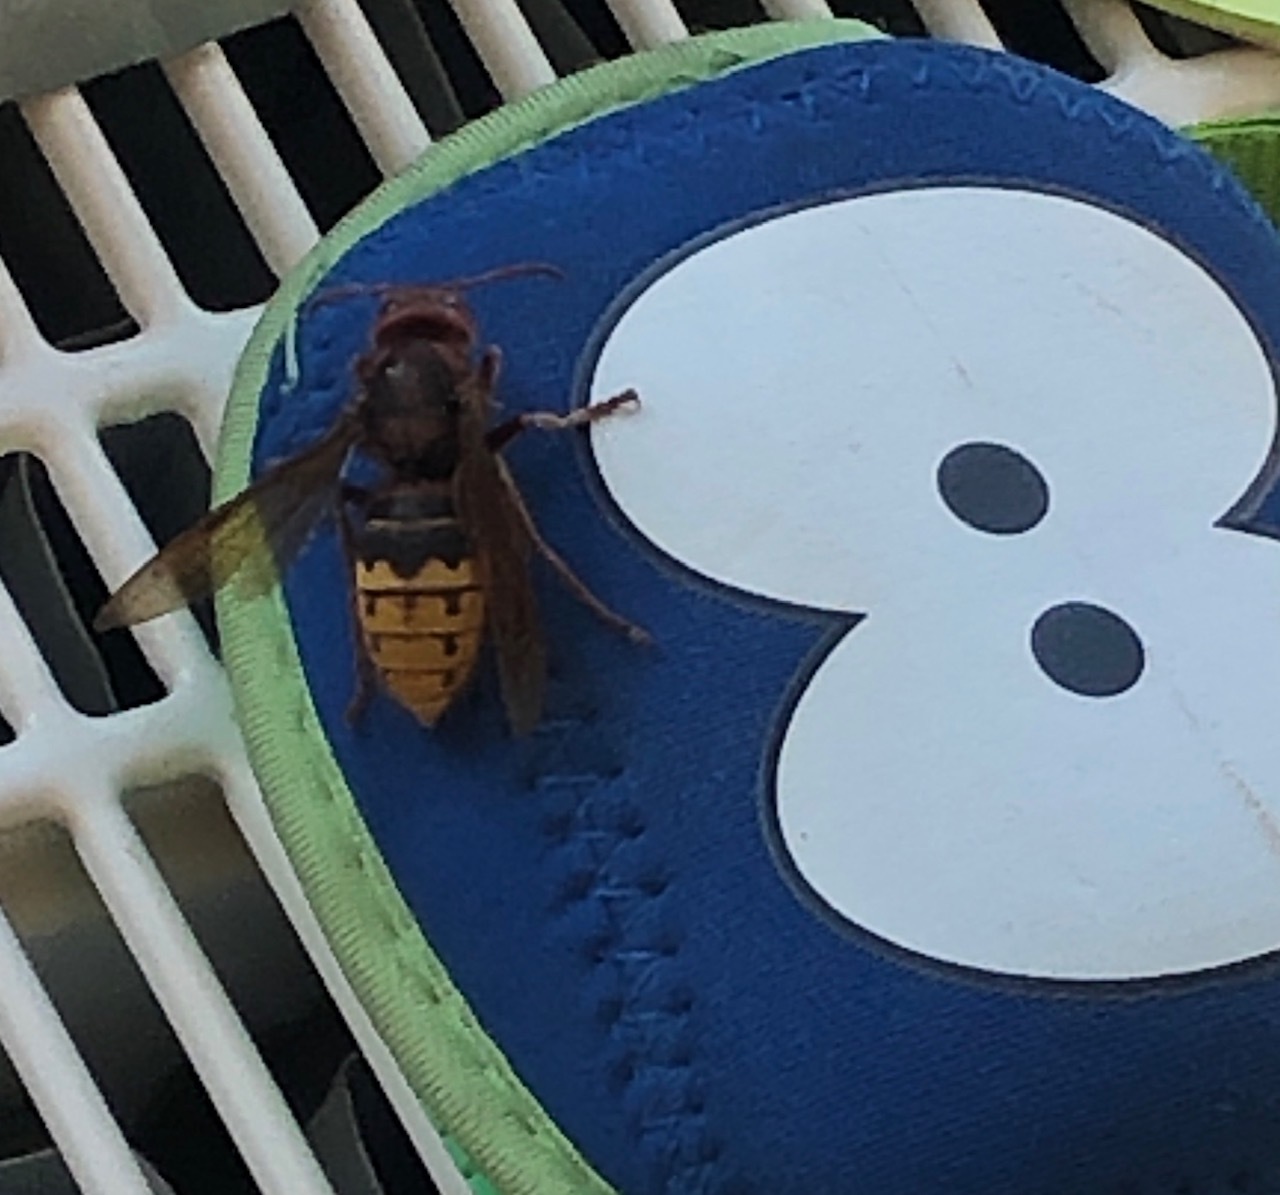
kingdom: Animalia
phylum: Arthropoda
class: Insecta
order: Hymenoptera
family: Vespidae
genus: Vespa
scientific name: Vespa crabro
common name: Hornet
